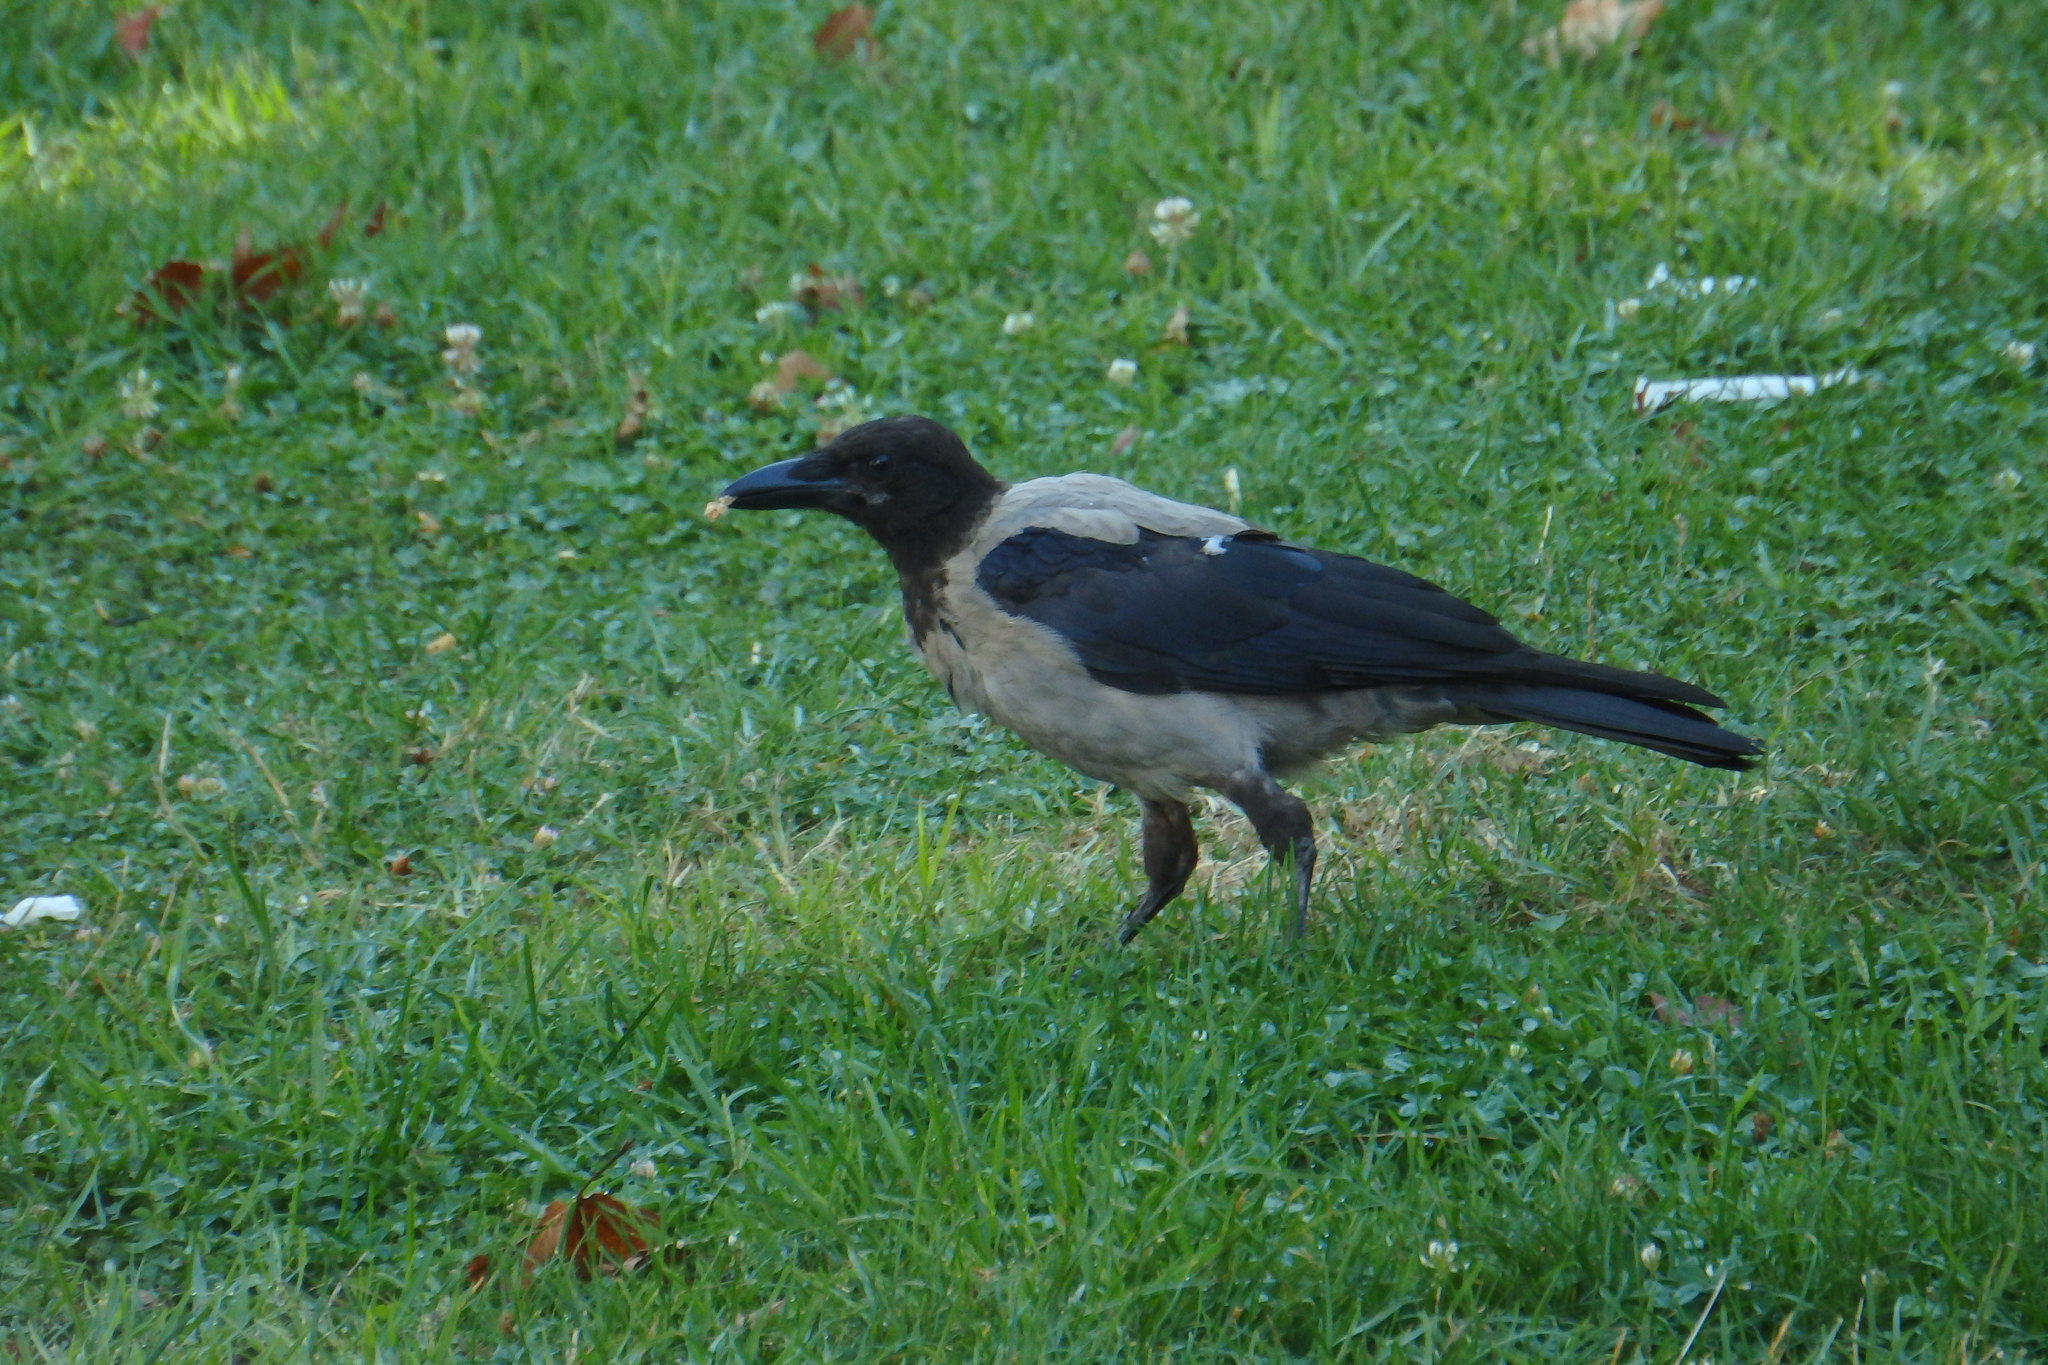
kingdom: Animalia
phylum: Chordata
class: Aves
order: Passeriformes
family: Corvidae
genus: Corvus
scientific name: Corvus cornix
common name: Hooded crow
